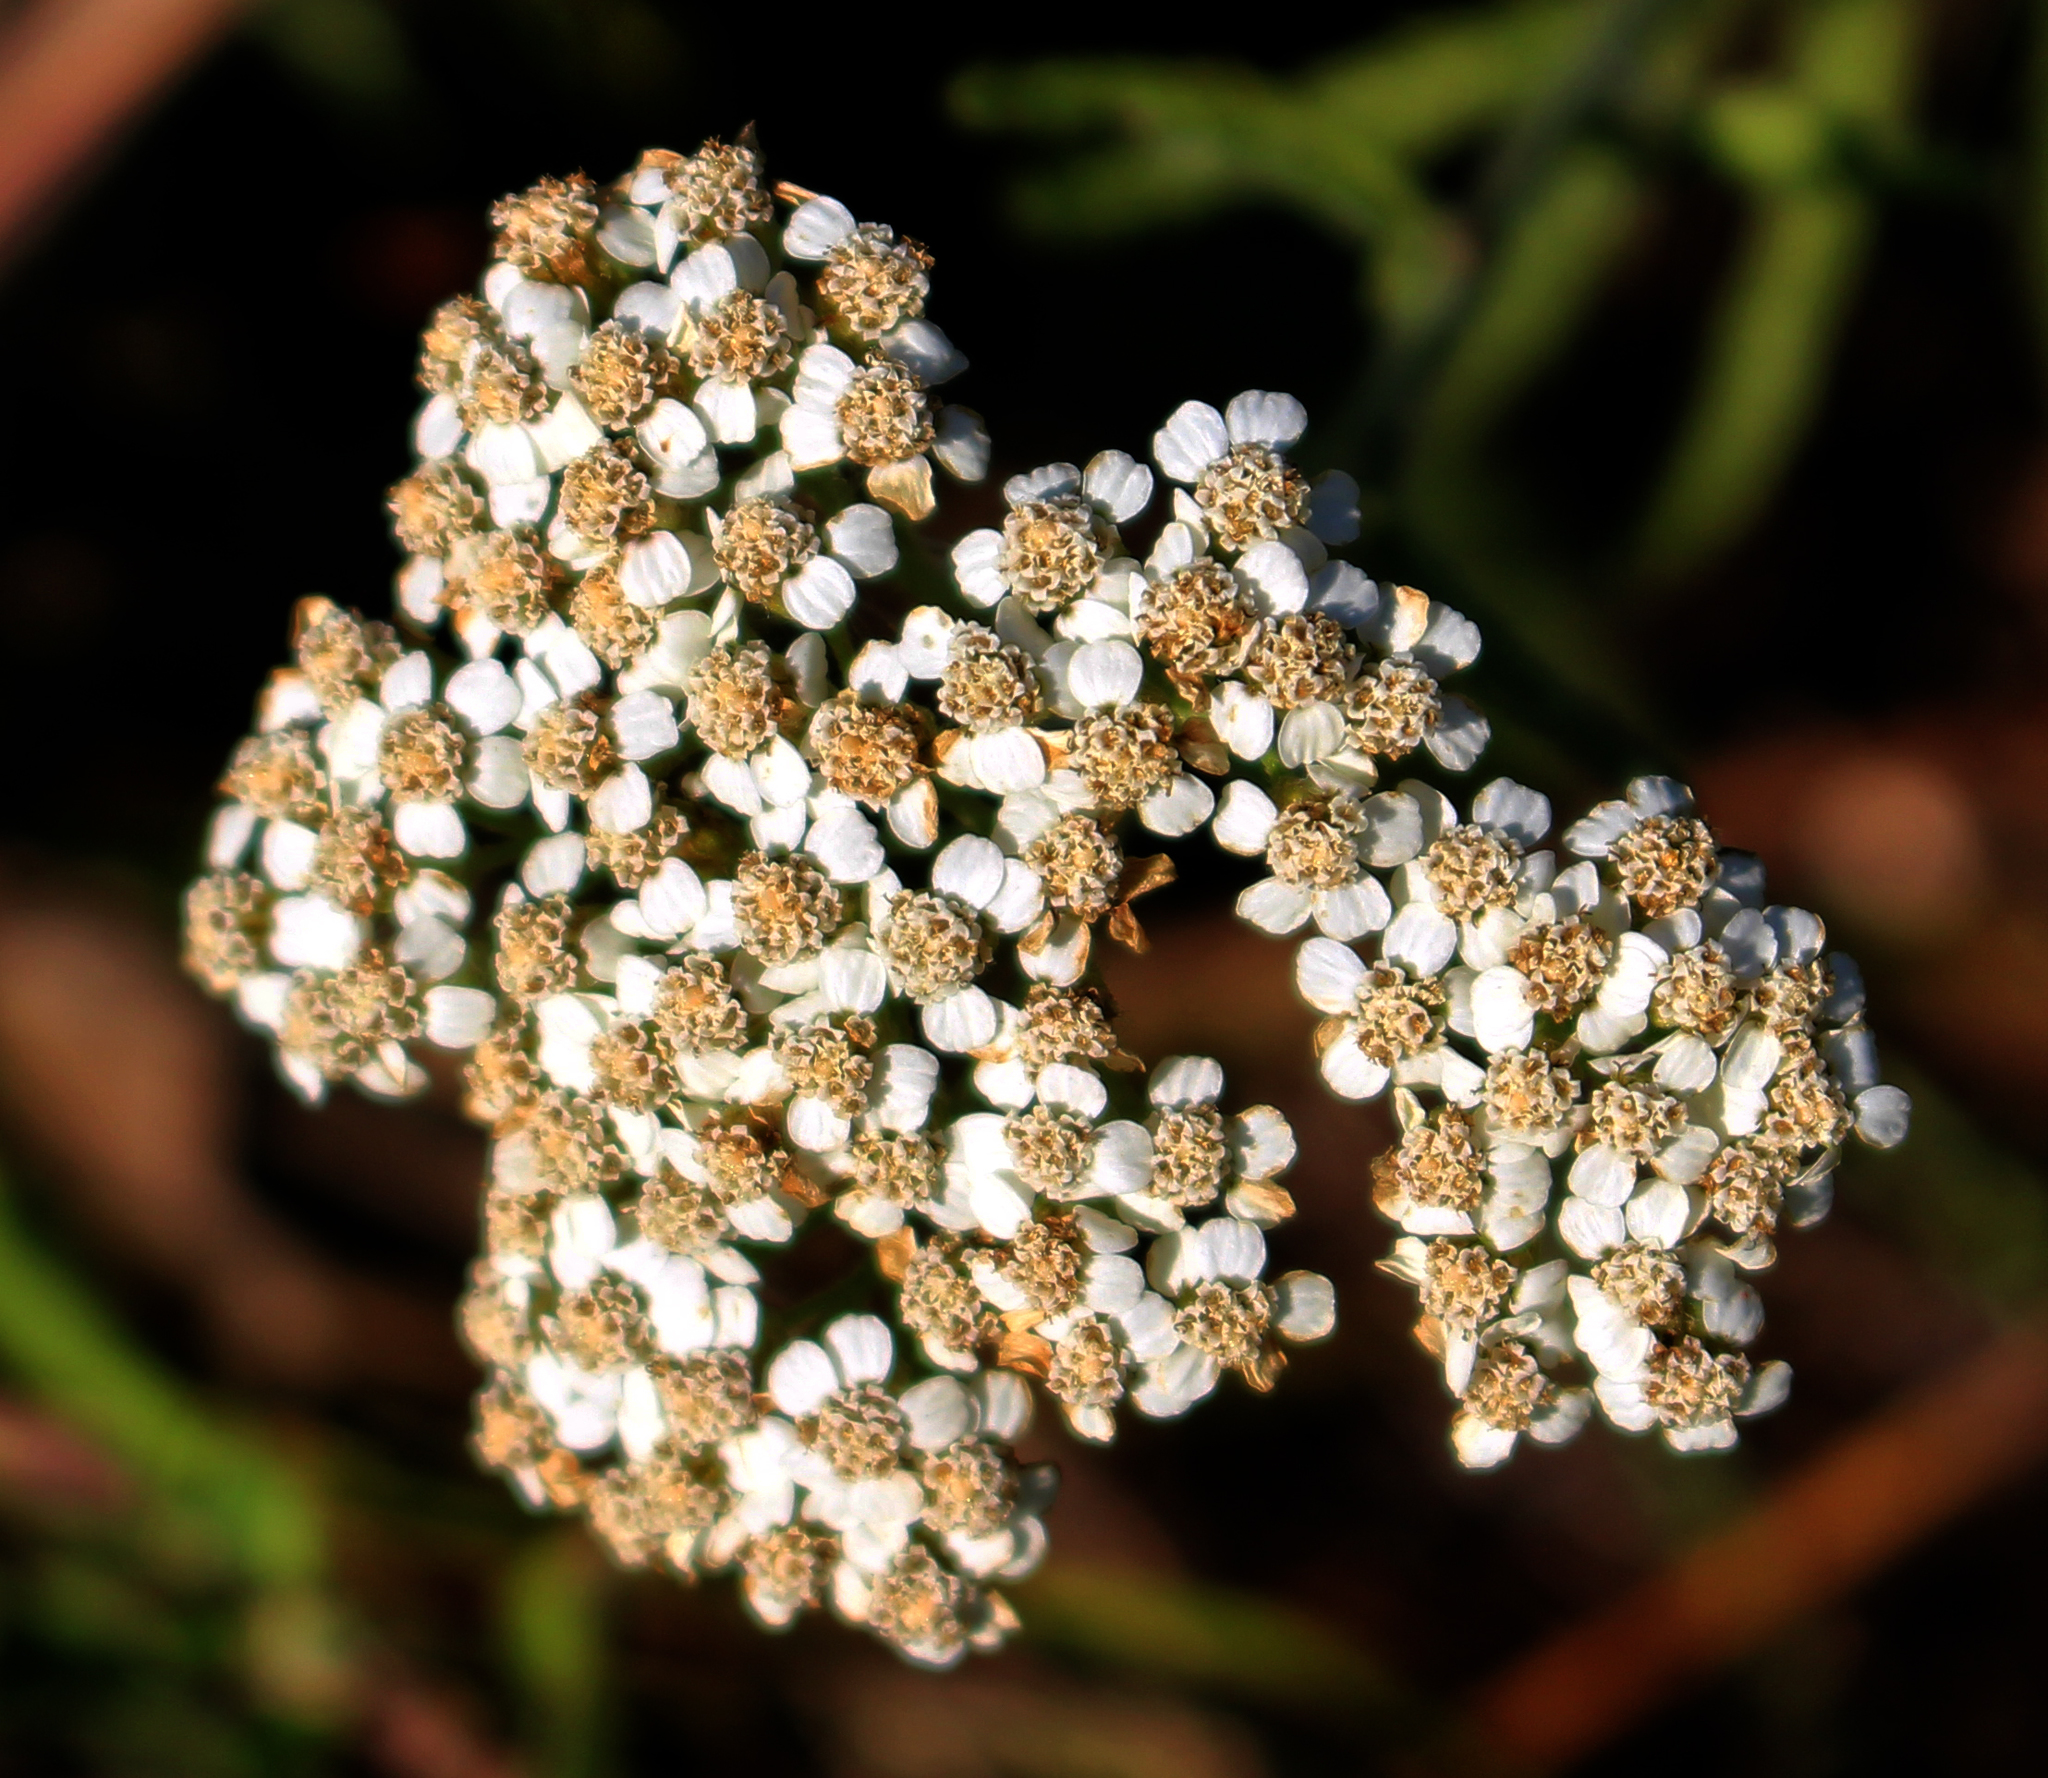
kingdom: Plantae
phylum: Tracheophyta
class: Magnoliopsida
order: Asterales
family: Asteraceae
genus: Achillea
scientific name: Achillea millefolium
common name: Yarrow
